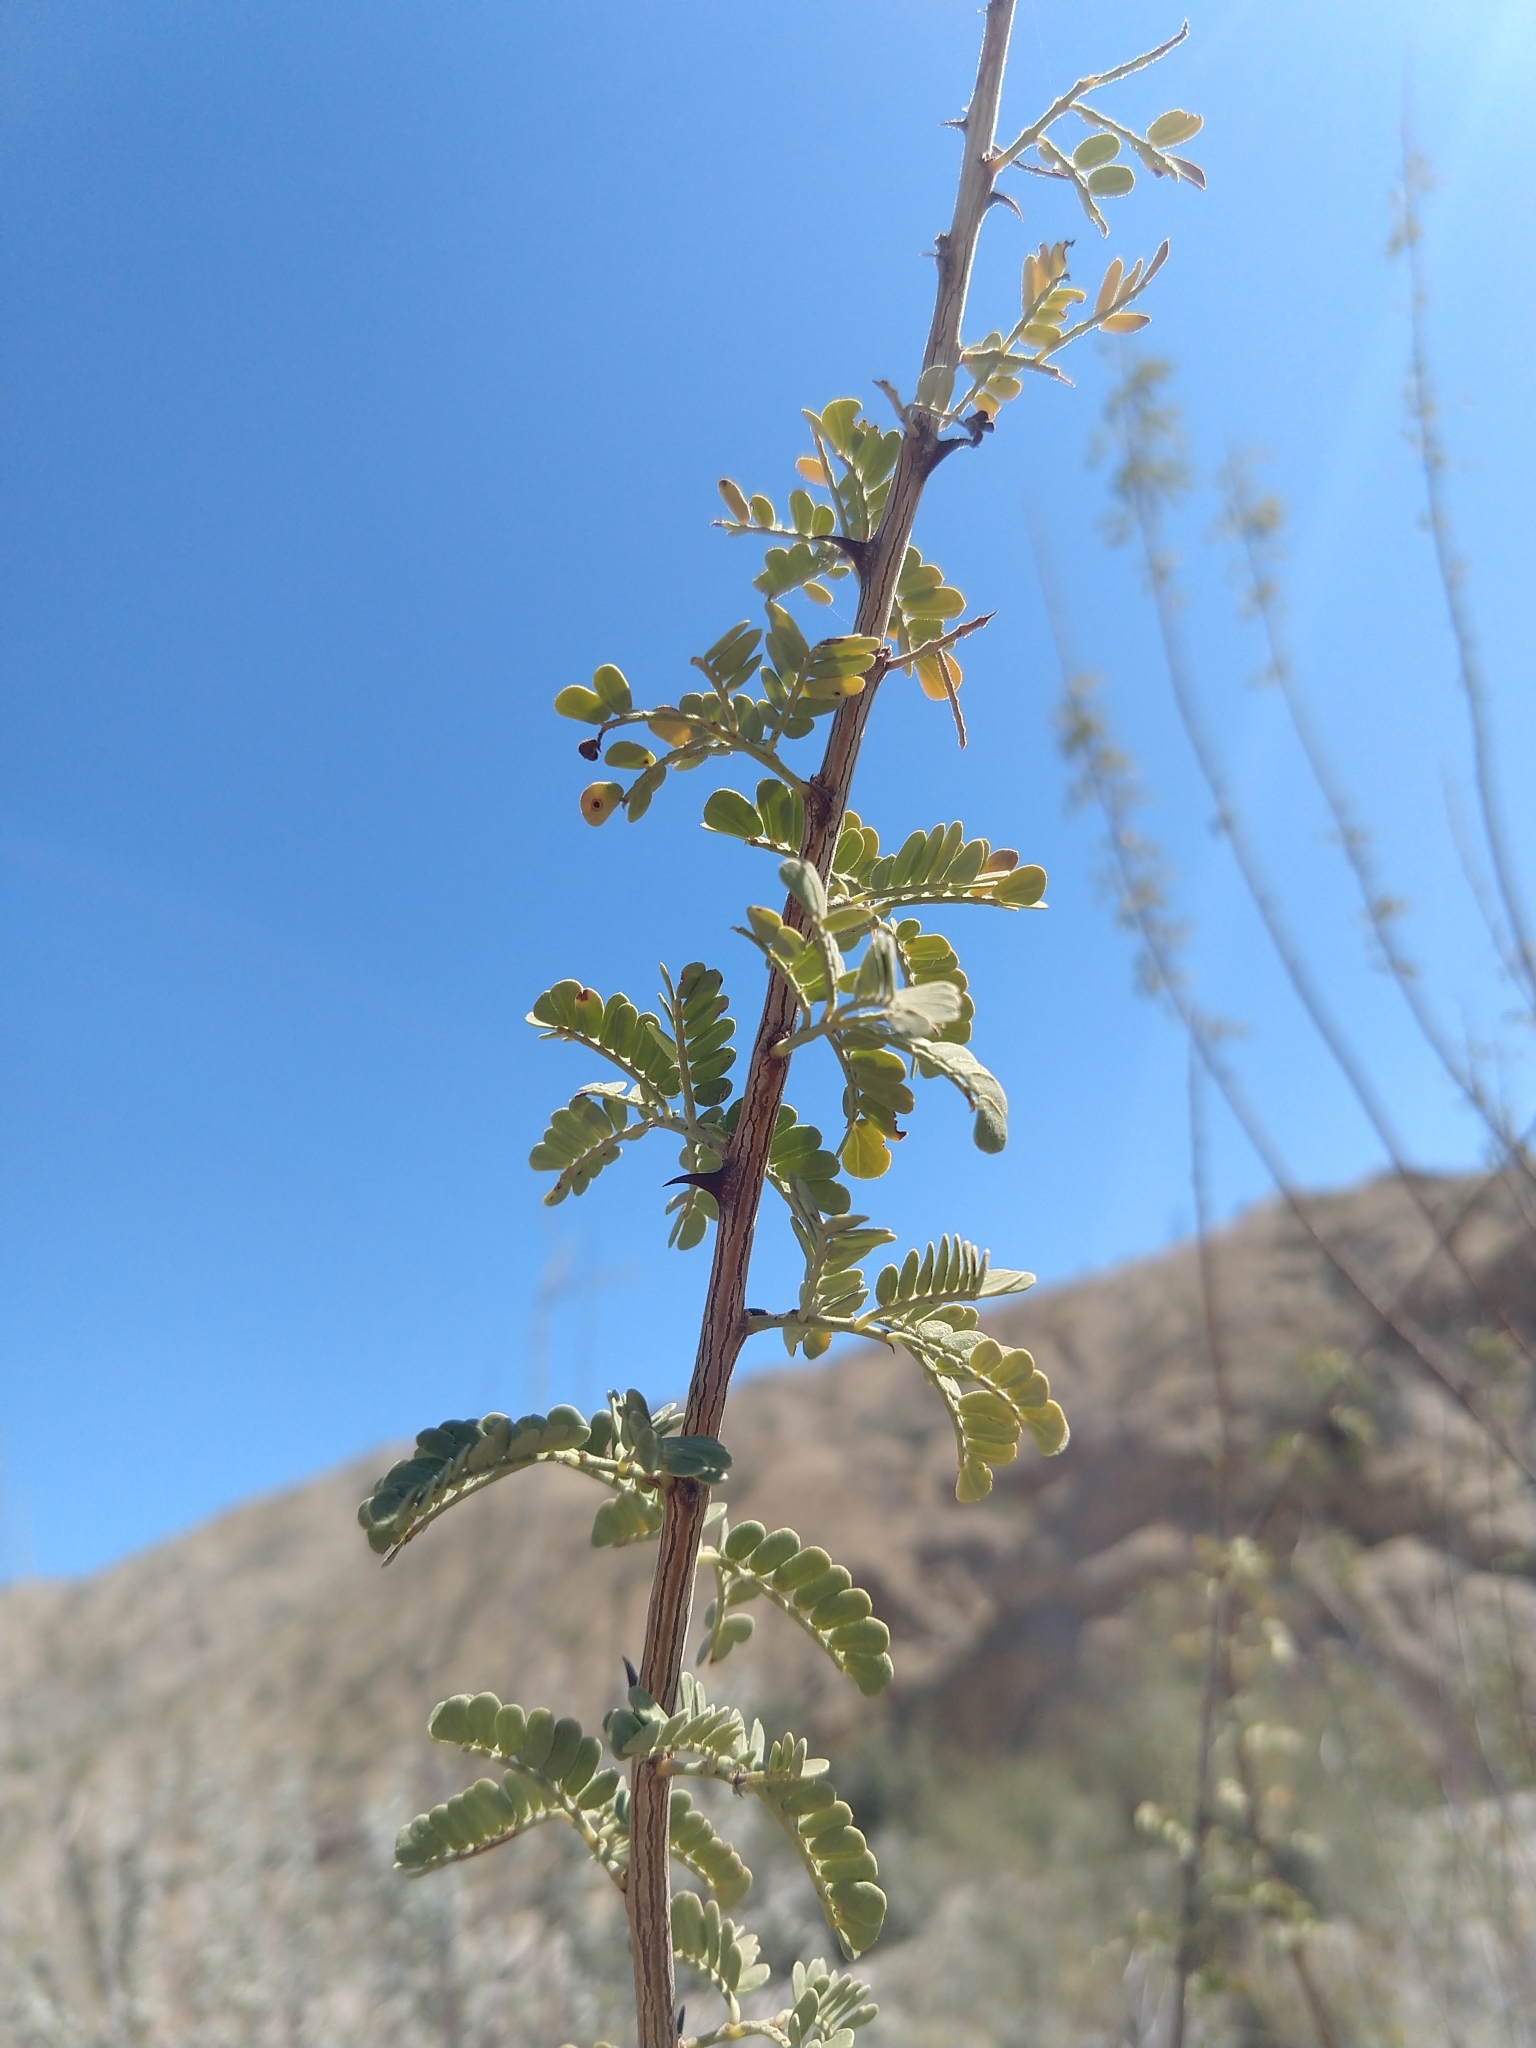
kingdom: Plantae
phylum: Tracheophyta
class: Magnoliopsida
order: Fabales
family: Fabaceae
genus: Senegalia
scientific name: Senegalia greggii
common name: Texas-mimosa
